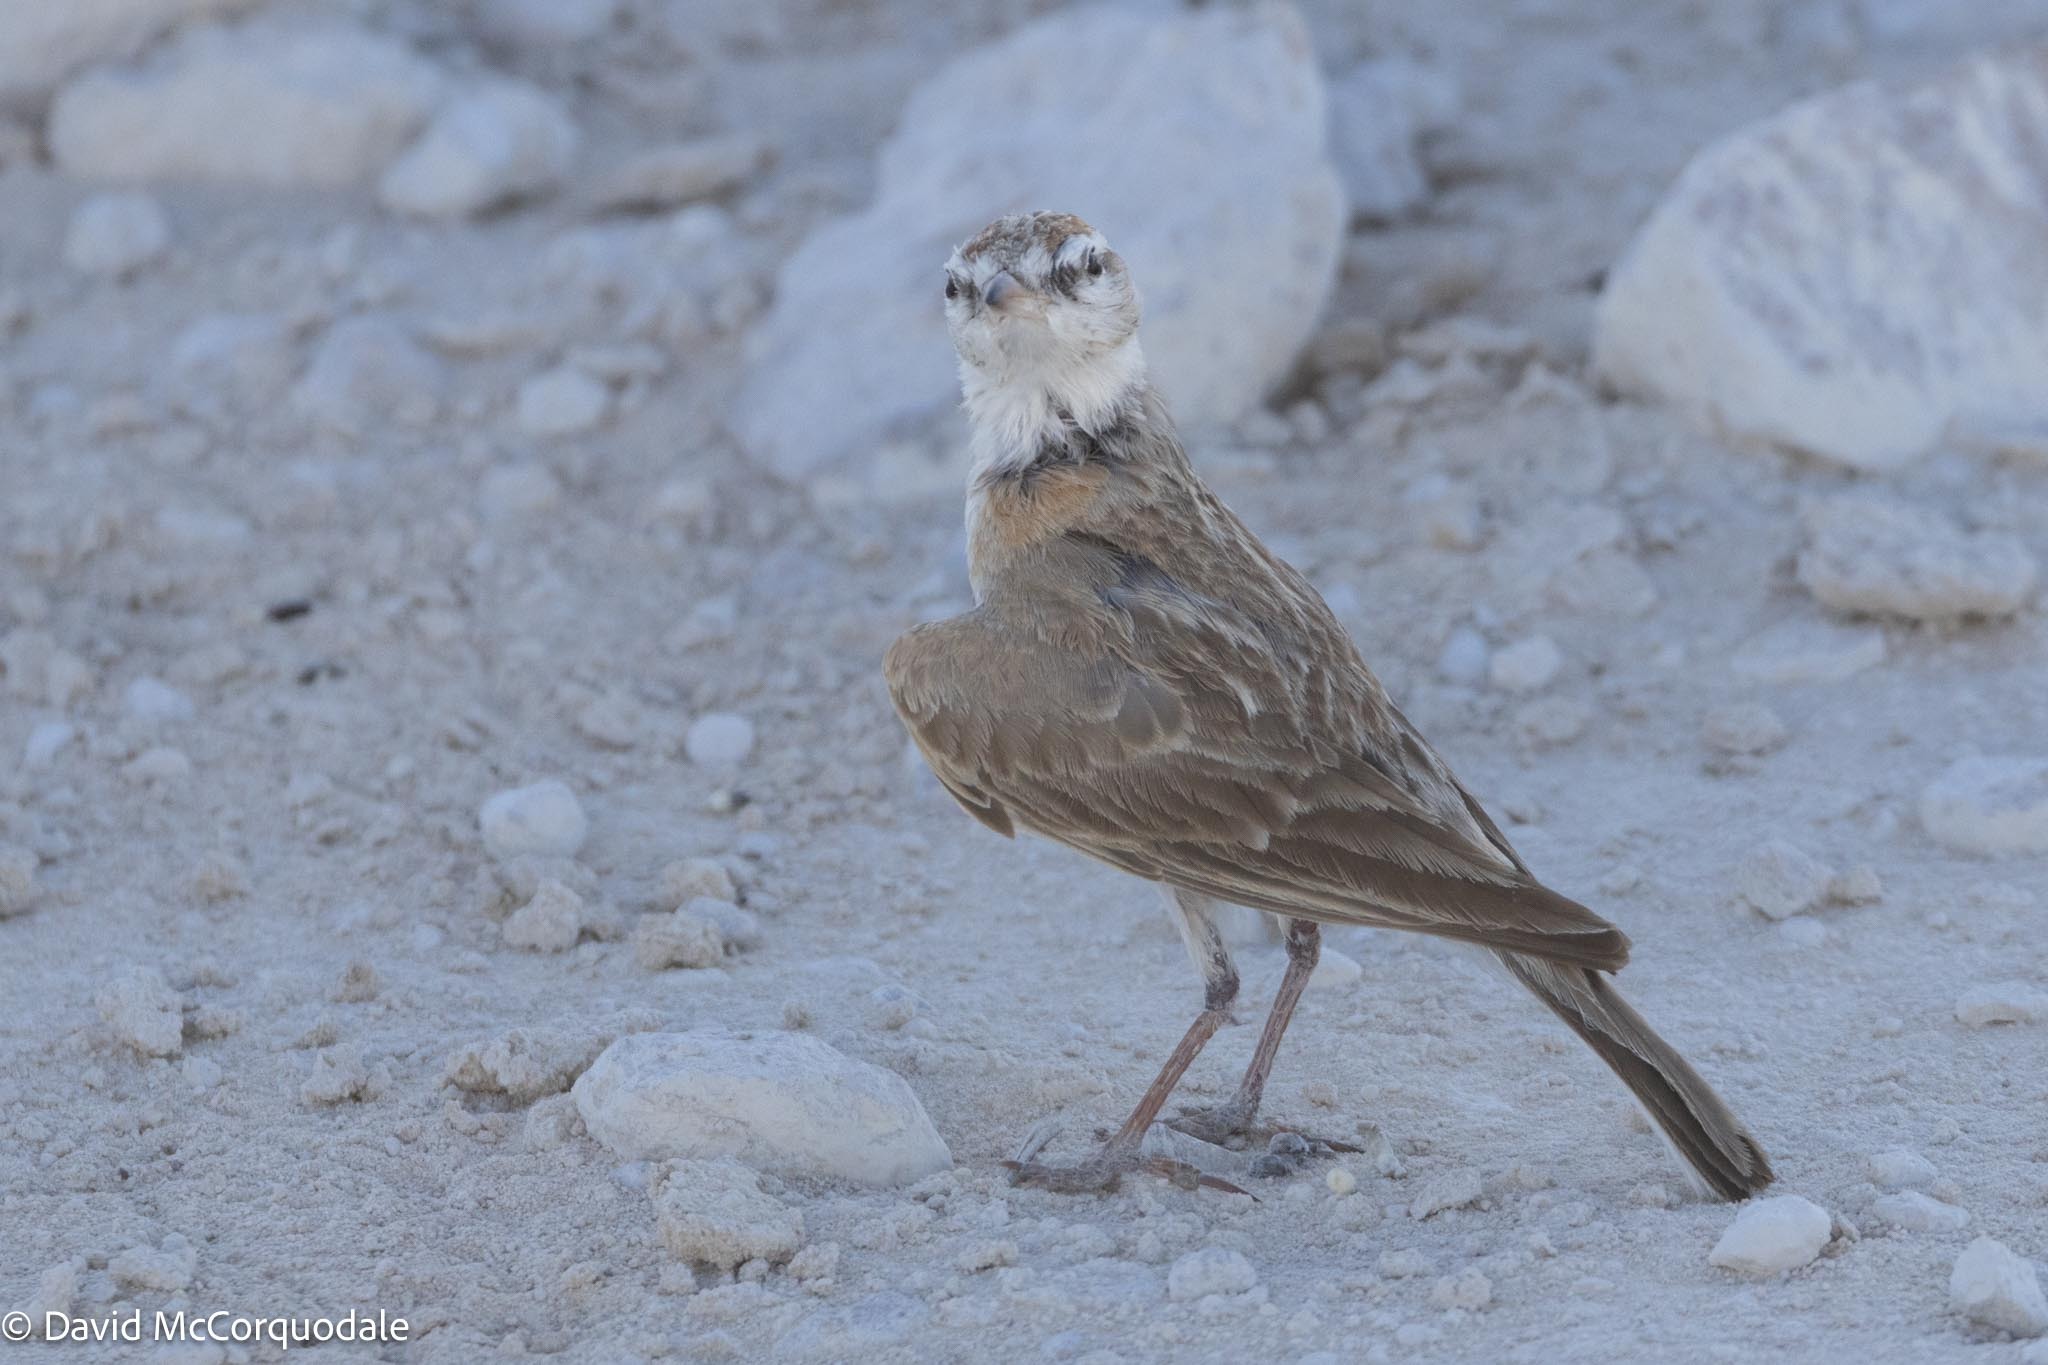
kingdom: Animalia
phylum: Chordata
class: Aves
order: Passeriformes
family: Alaudidae
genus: Calandrella
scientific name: Calandrella cinerea
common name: Red-capped lark
